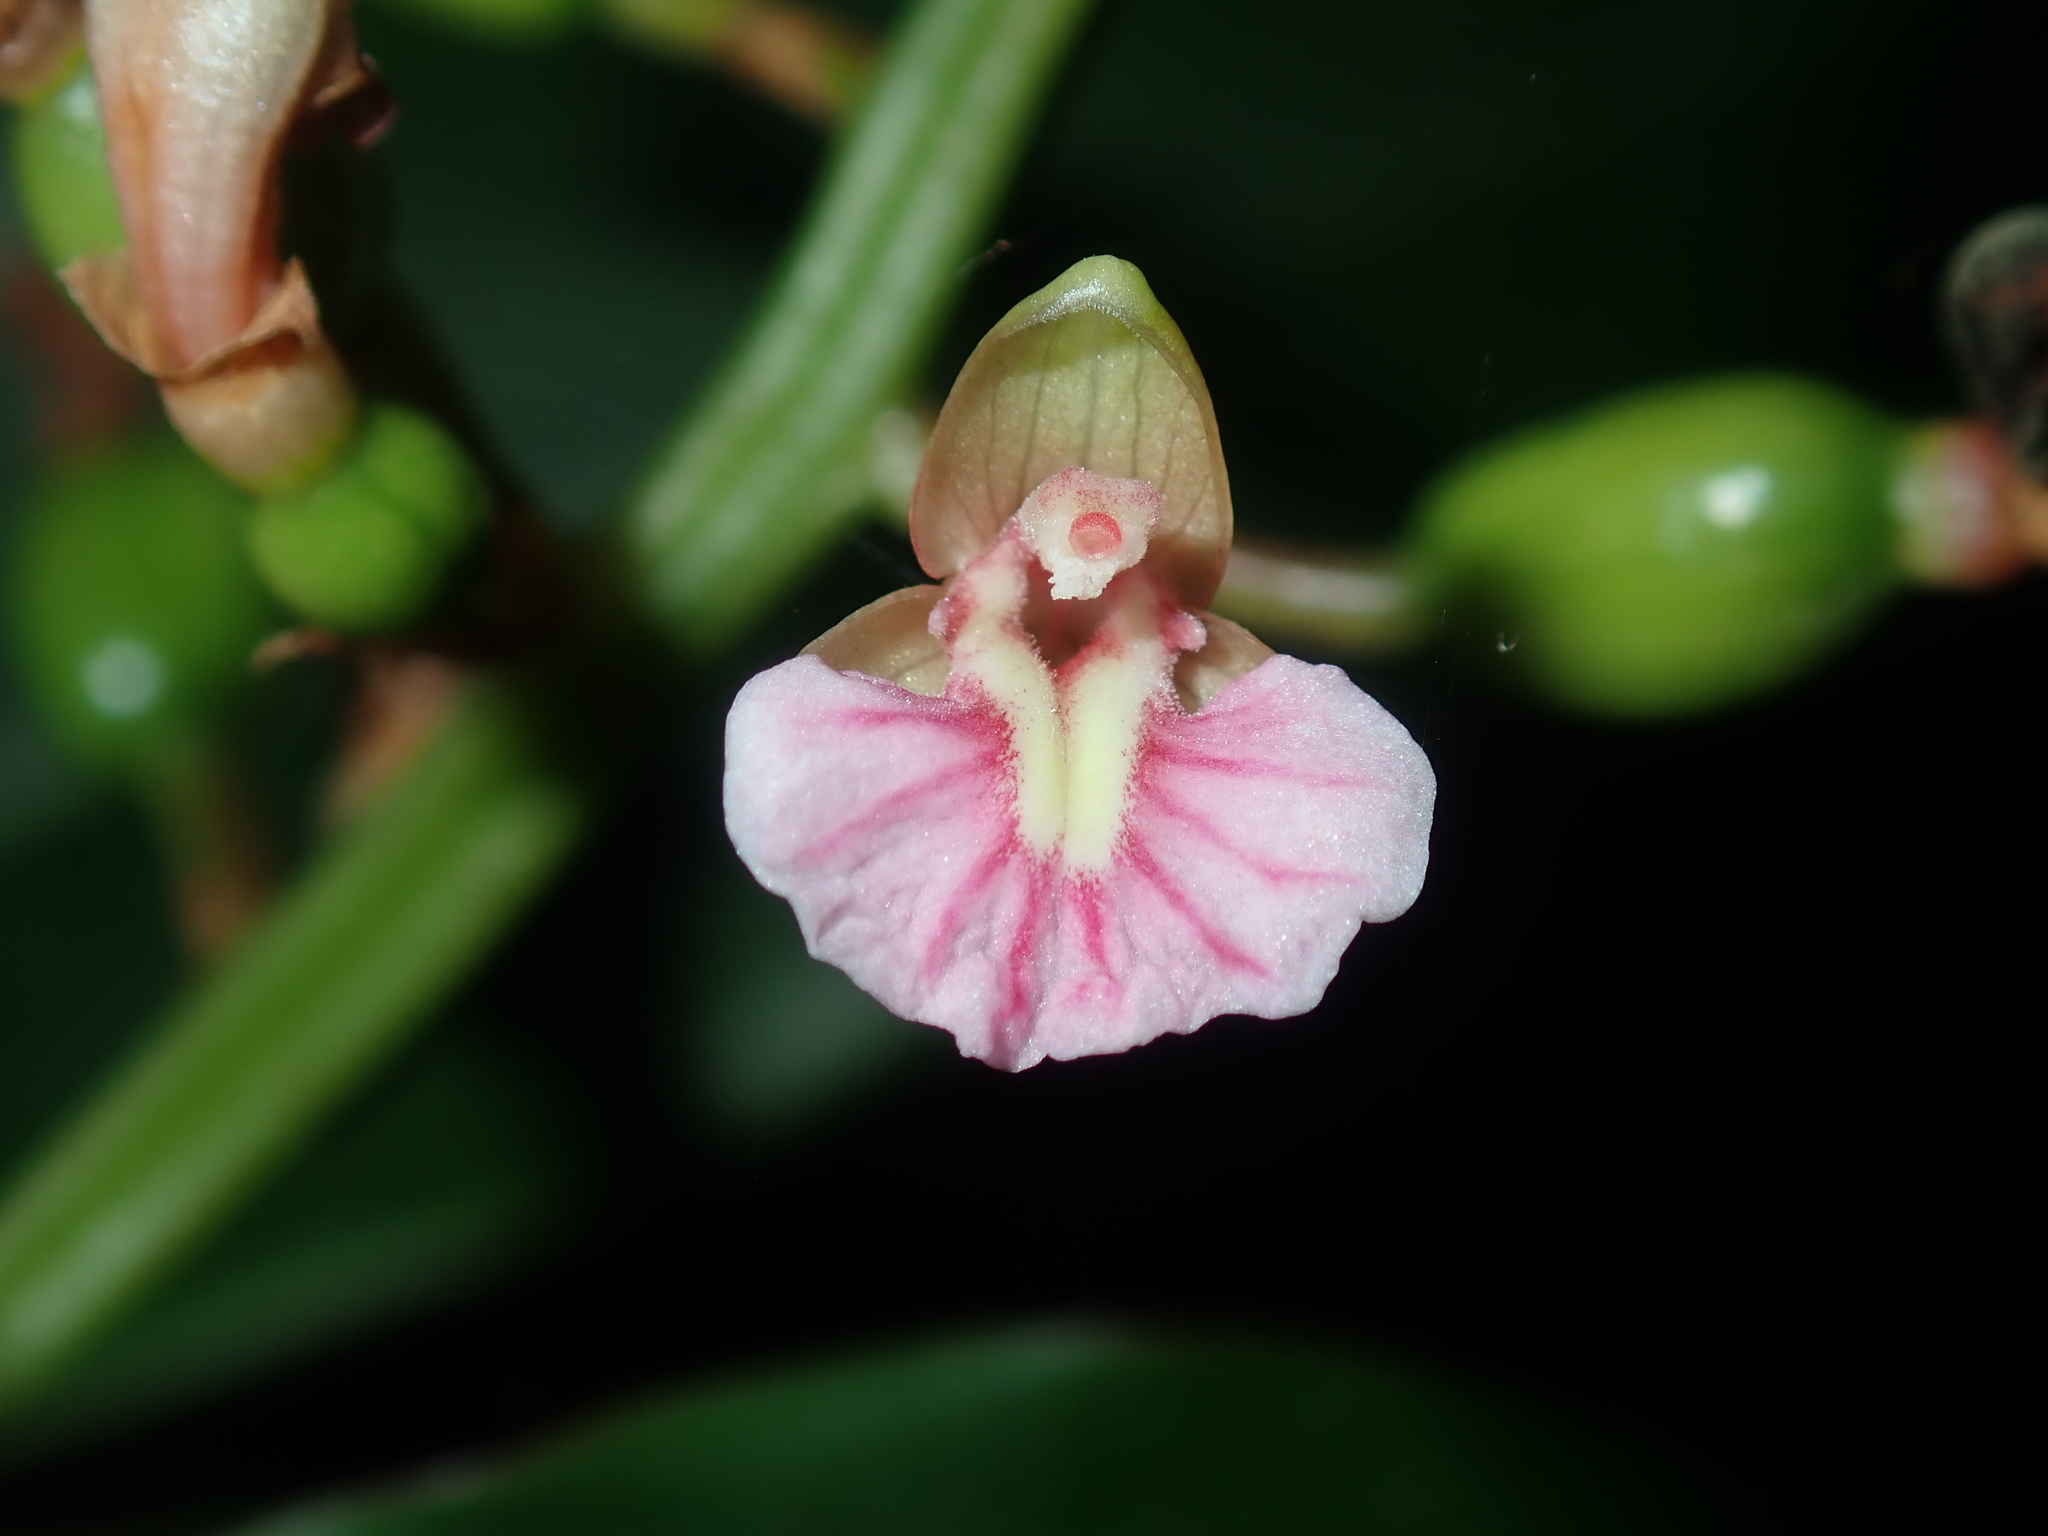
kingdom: Plantae
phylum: Tracheophyta
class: Liliopsida
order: Zingiberales
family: Zingiberaceae
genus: Alpinia
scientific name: Alpinia arundelliana
